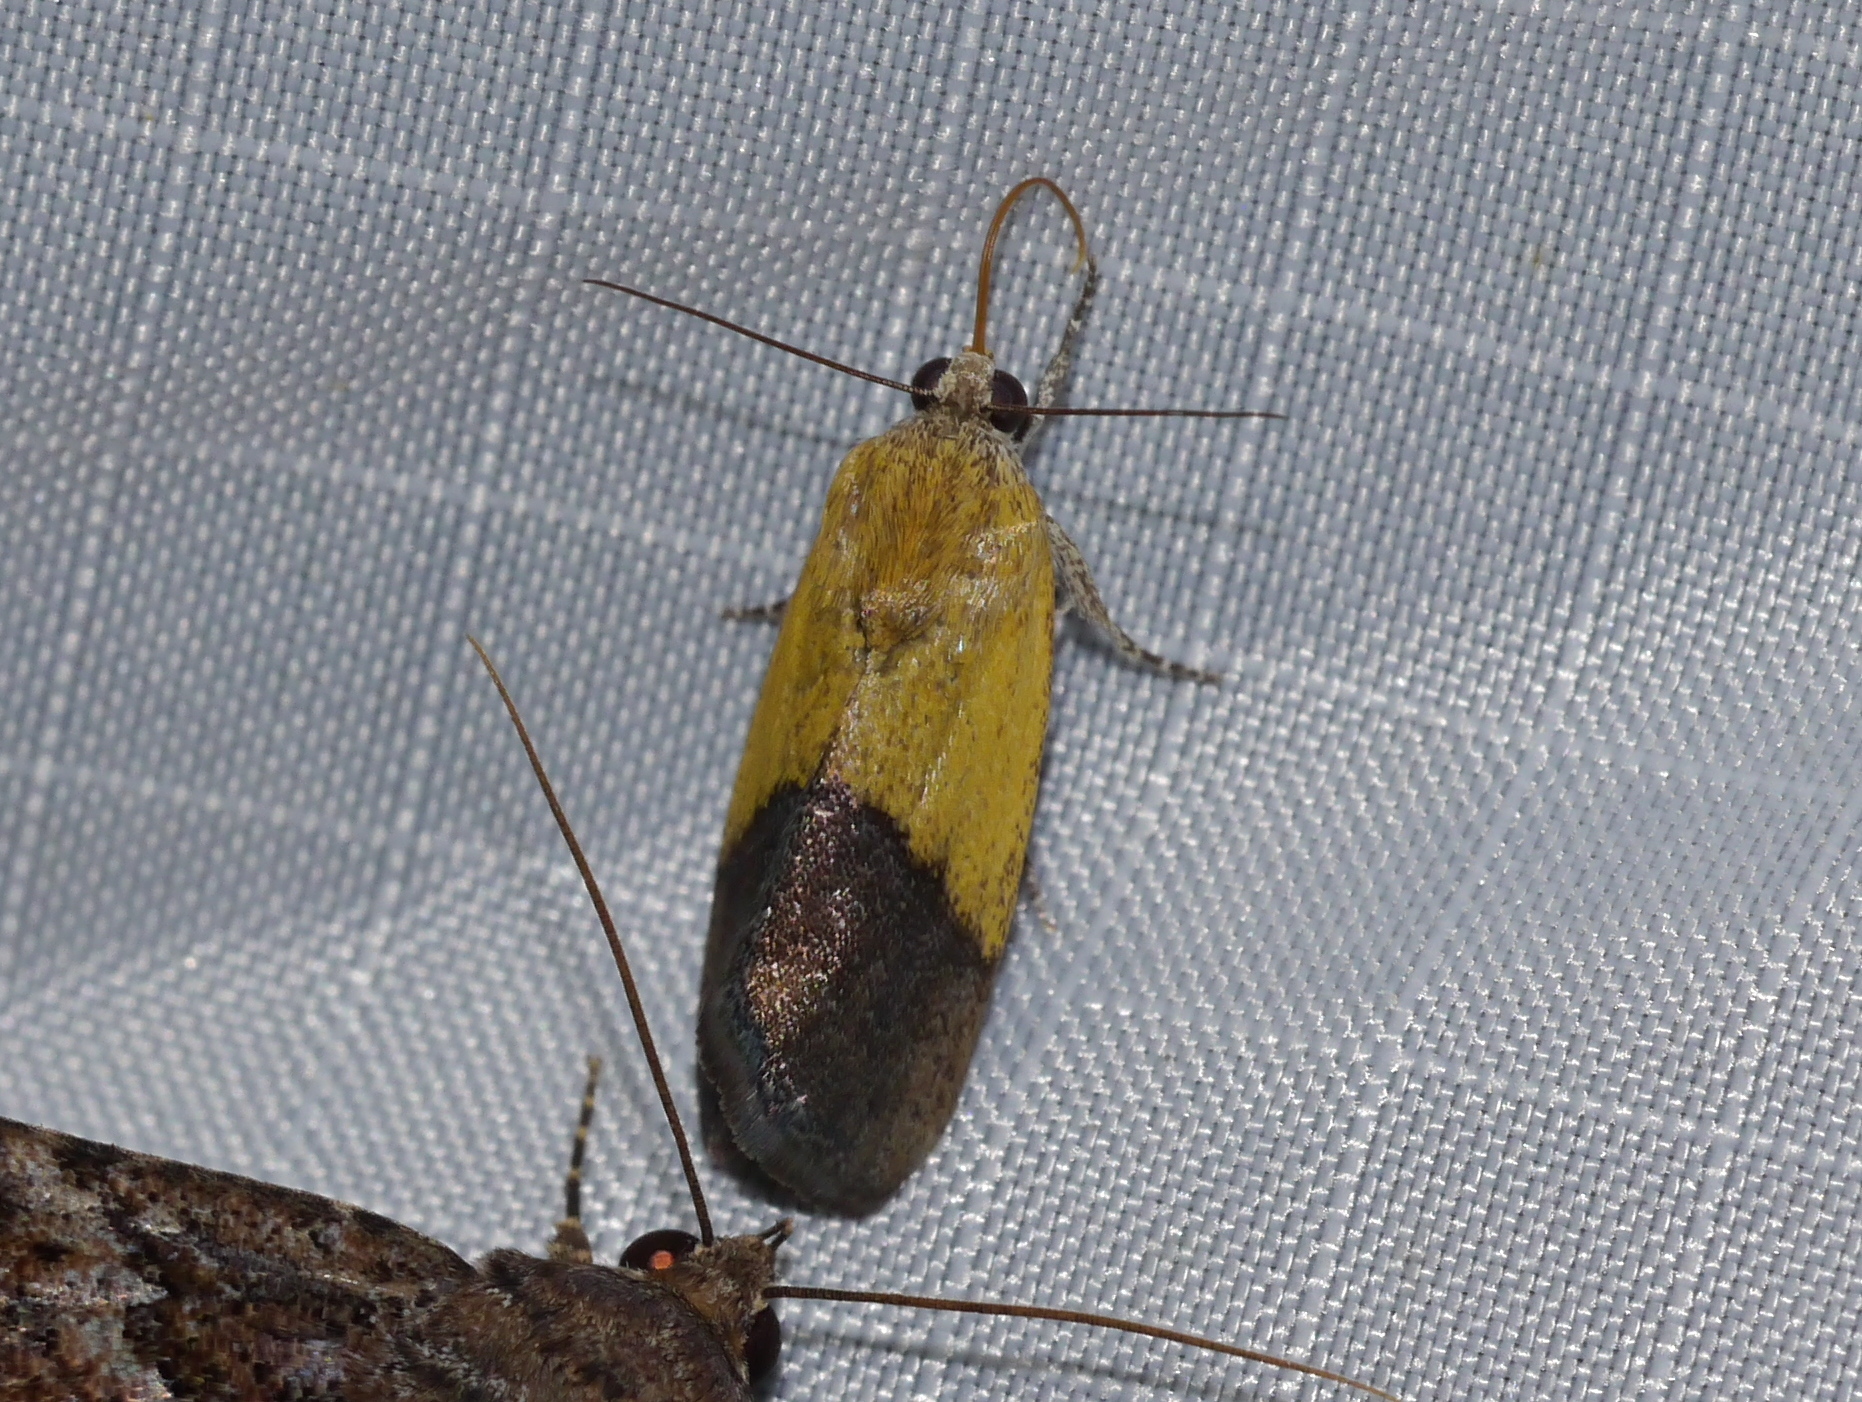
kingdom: Animalia
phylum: Arthropoda
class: Insecta
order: Lepidoptera
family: Noctuidae
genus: Acontia
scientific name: Acontia semiflava
